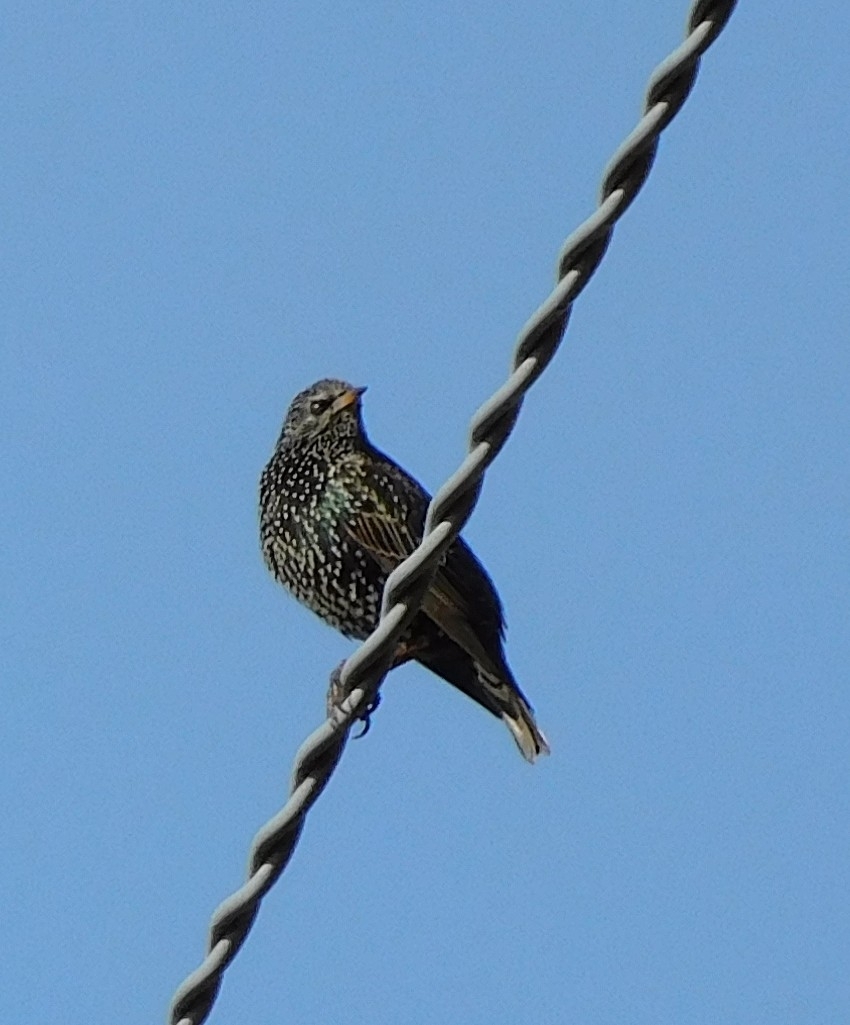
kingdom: Animalia
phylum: Chordata
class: Aves
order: Passeriformes
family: Sturnidae
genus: Sturnus
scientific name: Sturnus vulgaris
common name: Common starling
